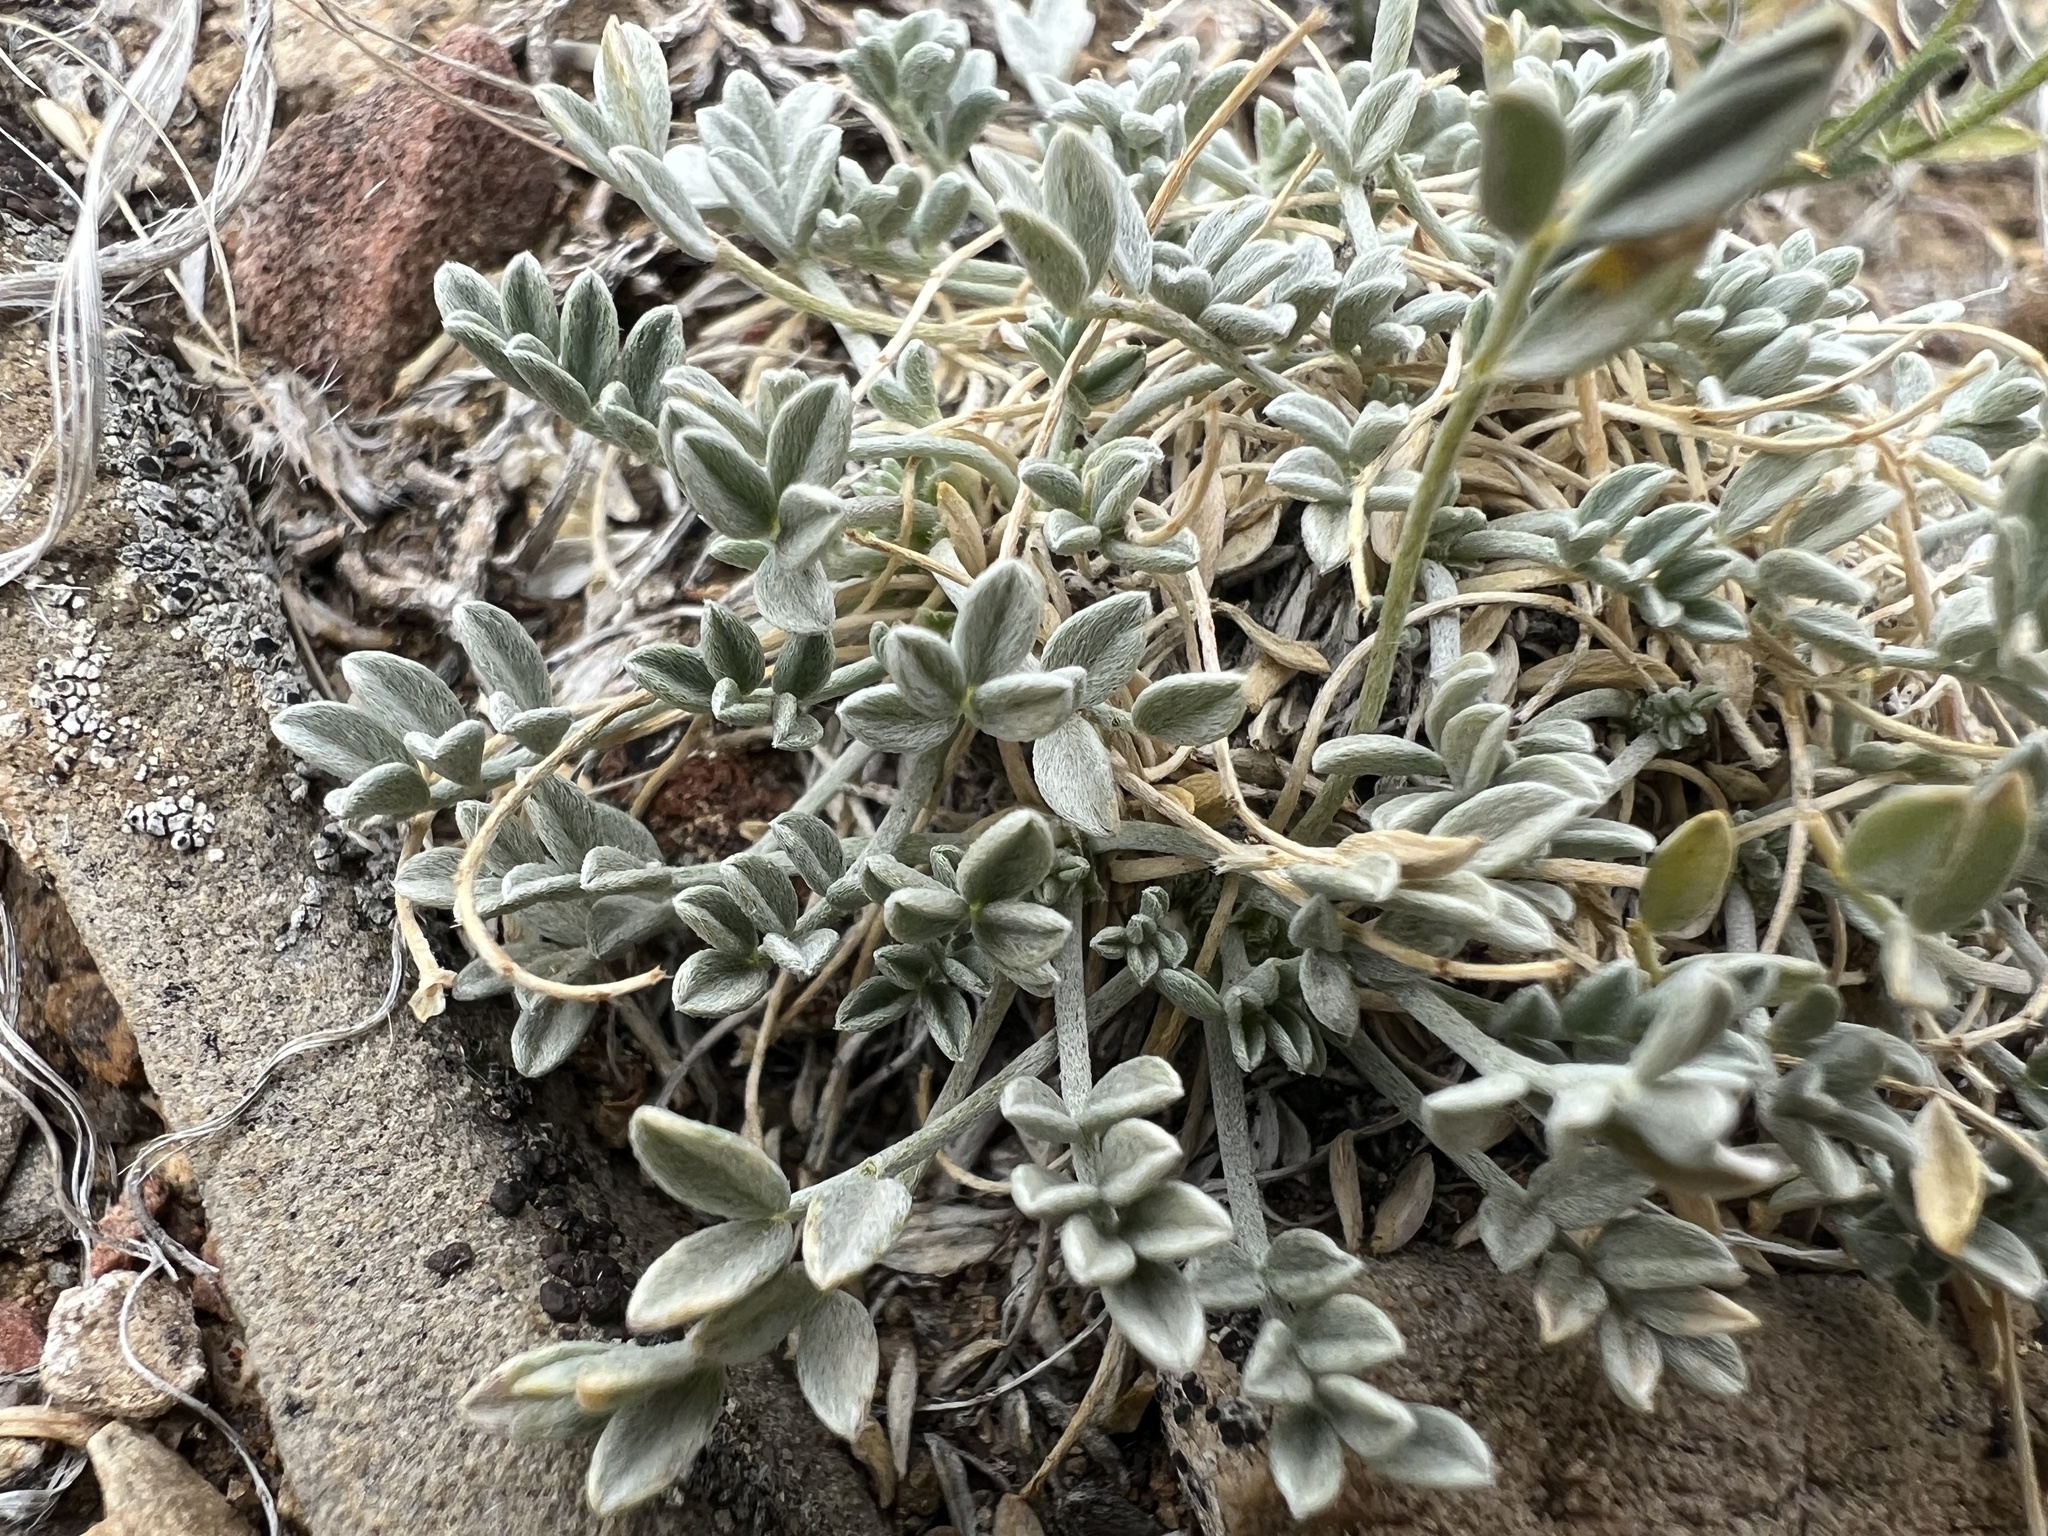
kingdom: Plantae
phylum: Tracheophyta
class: Magnoliopsida
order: Fabales
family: Fabaceae
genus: Astragalus
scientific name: Astragalus calycosus
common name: King's milkvetch
